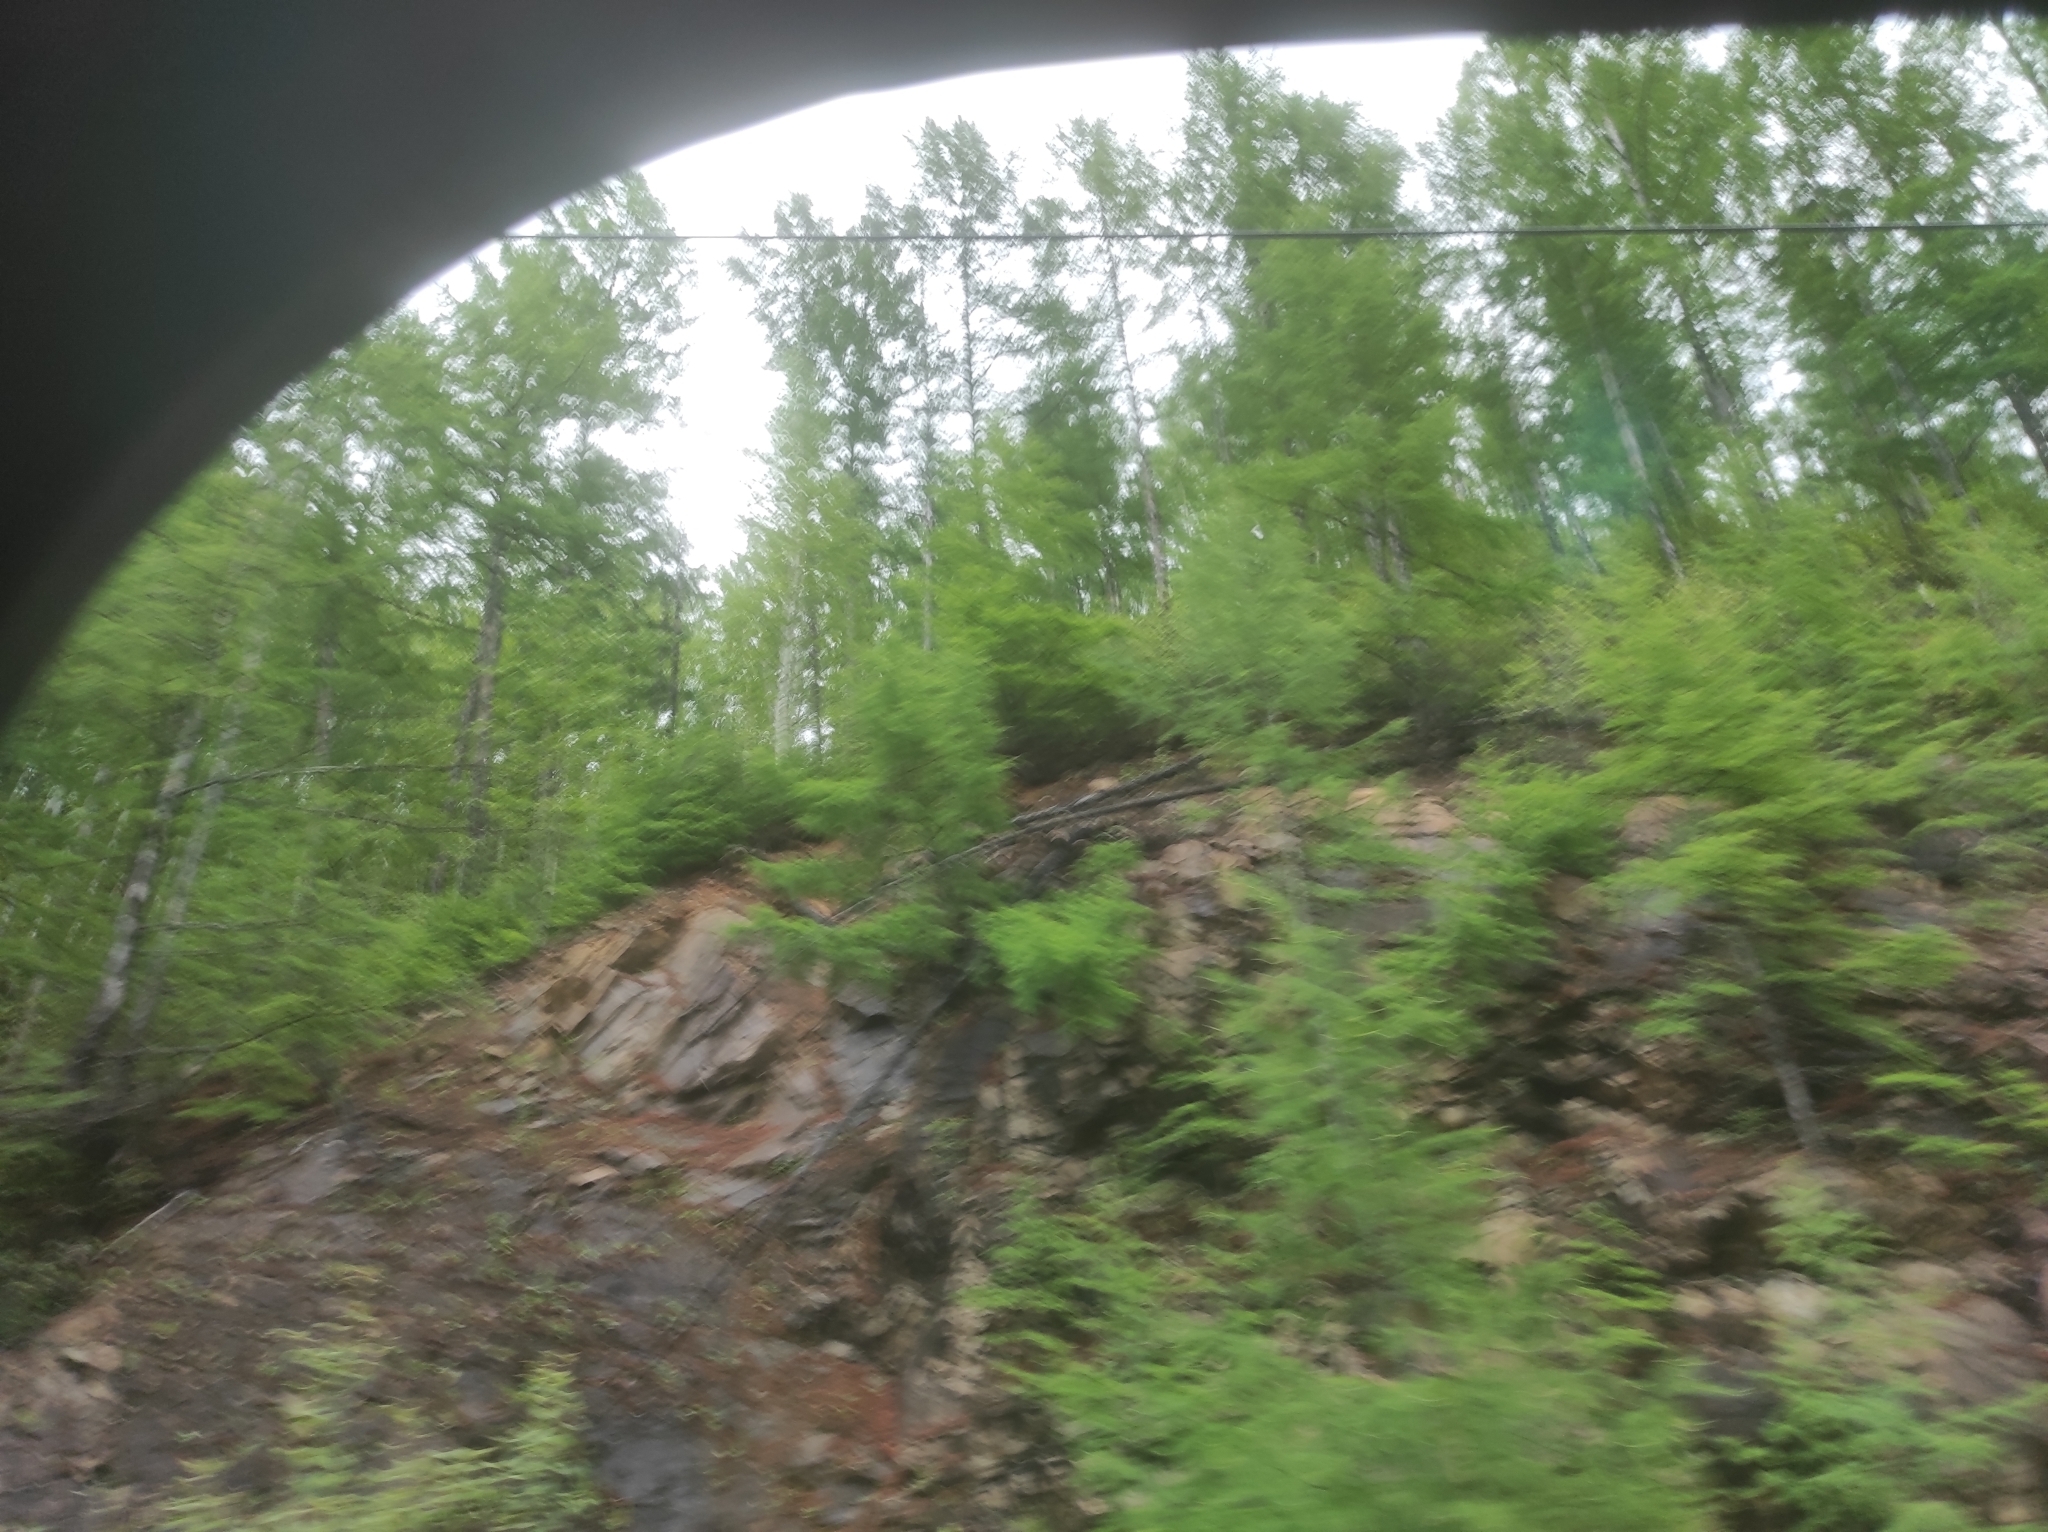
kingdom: Plantae
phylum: Tracheophyta
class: Pinopsida
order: Pinales
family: Pinaceae
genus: Larix
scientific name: Larix gmelinii
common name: Dahurian larch
